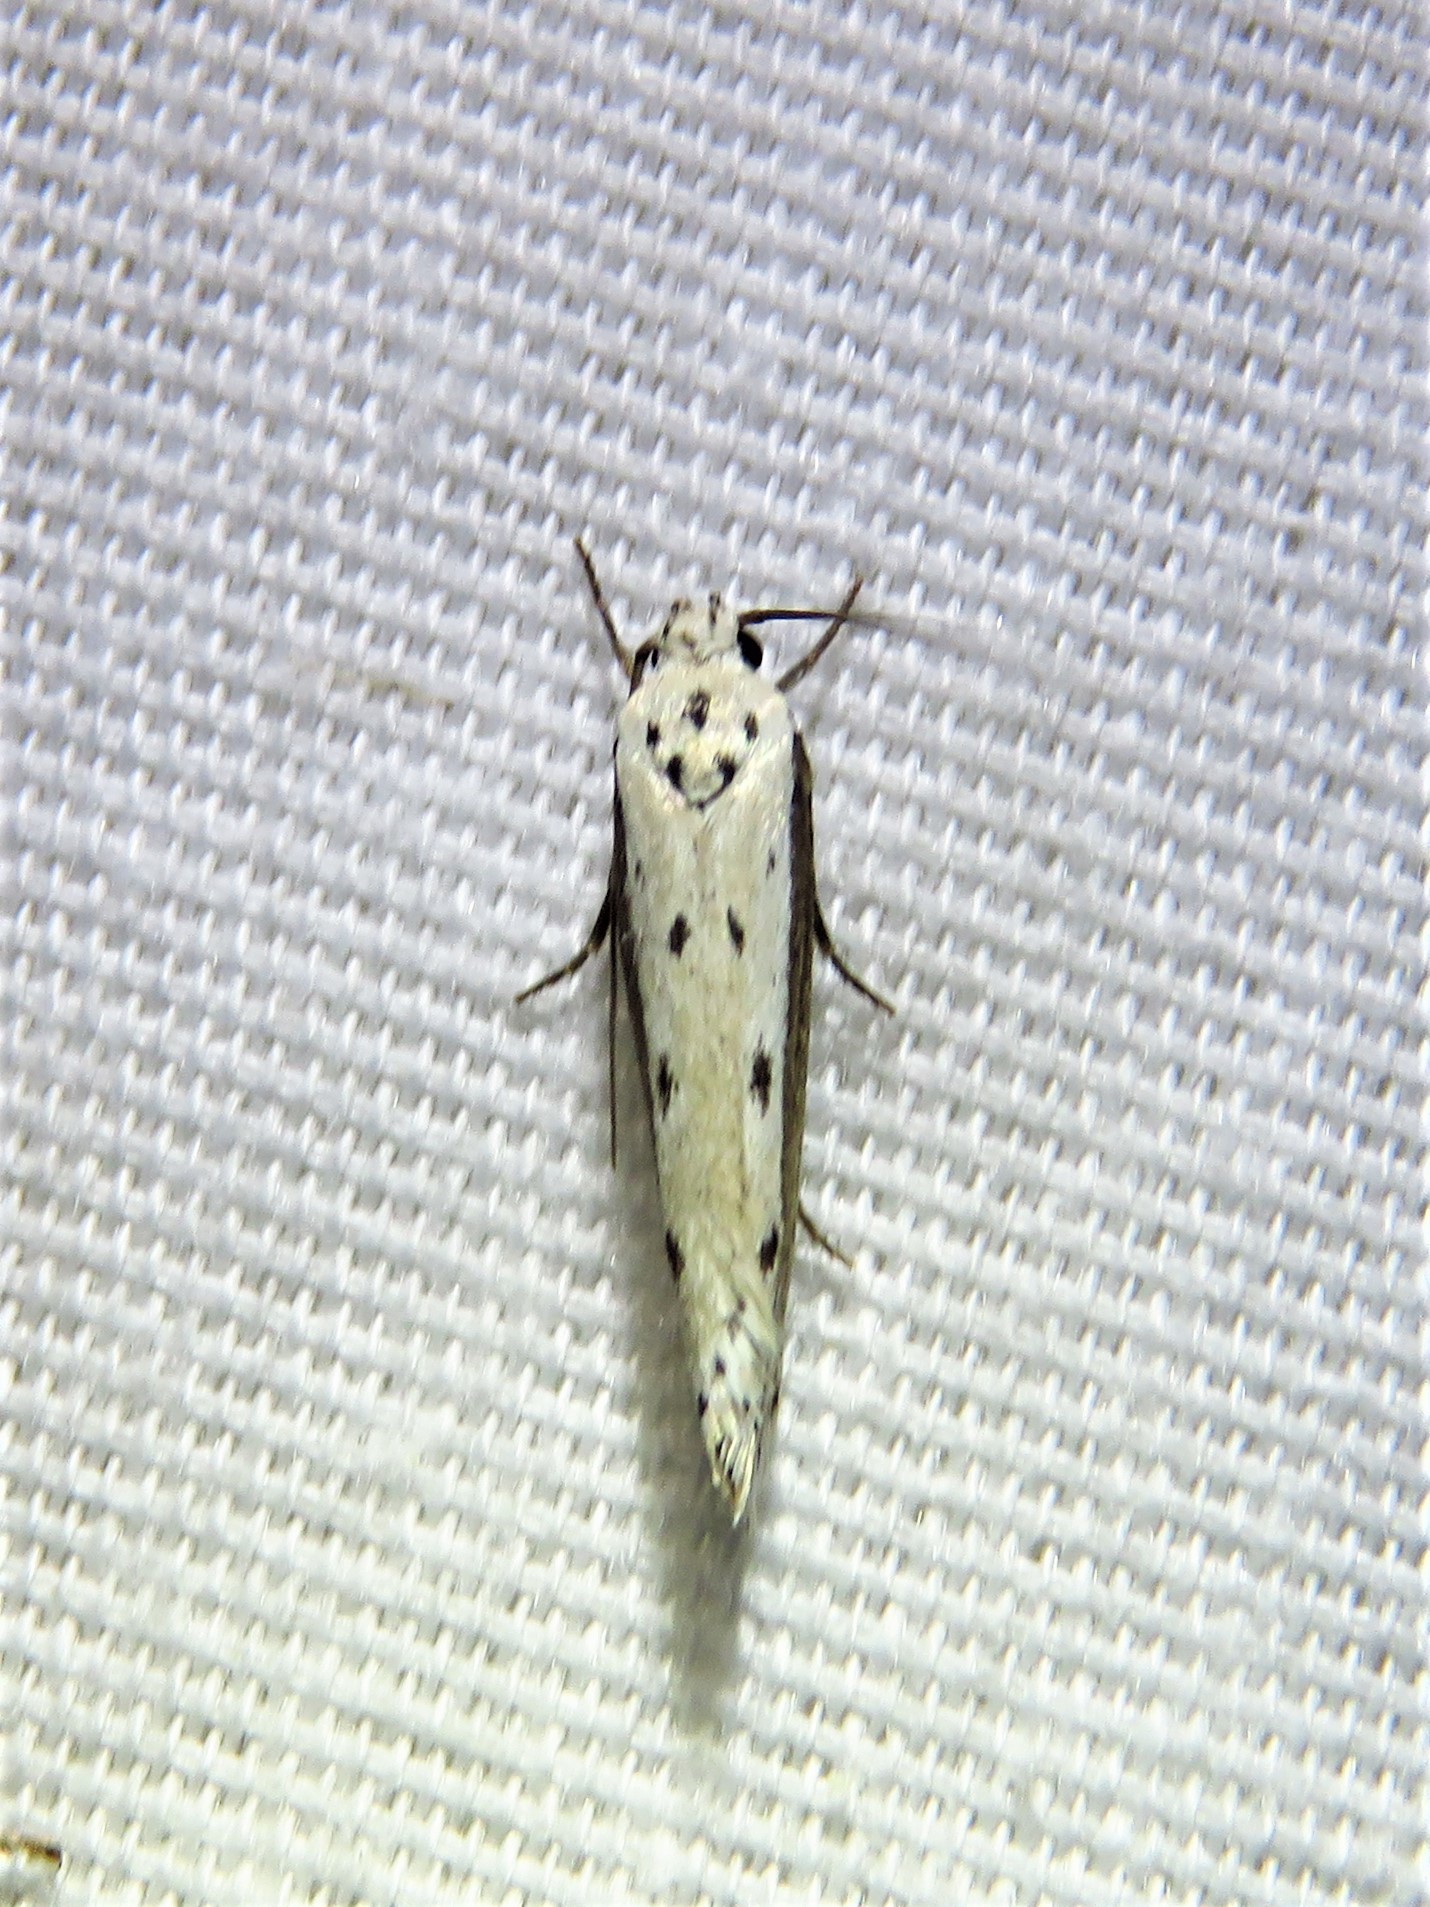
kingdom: Animalia
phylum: Arthropoda
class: Insecta
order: Lepidoptera
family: Ethmiidae
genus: Ethmia
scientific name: Ethmia mirusella
